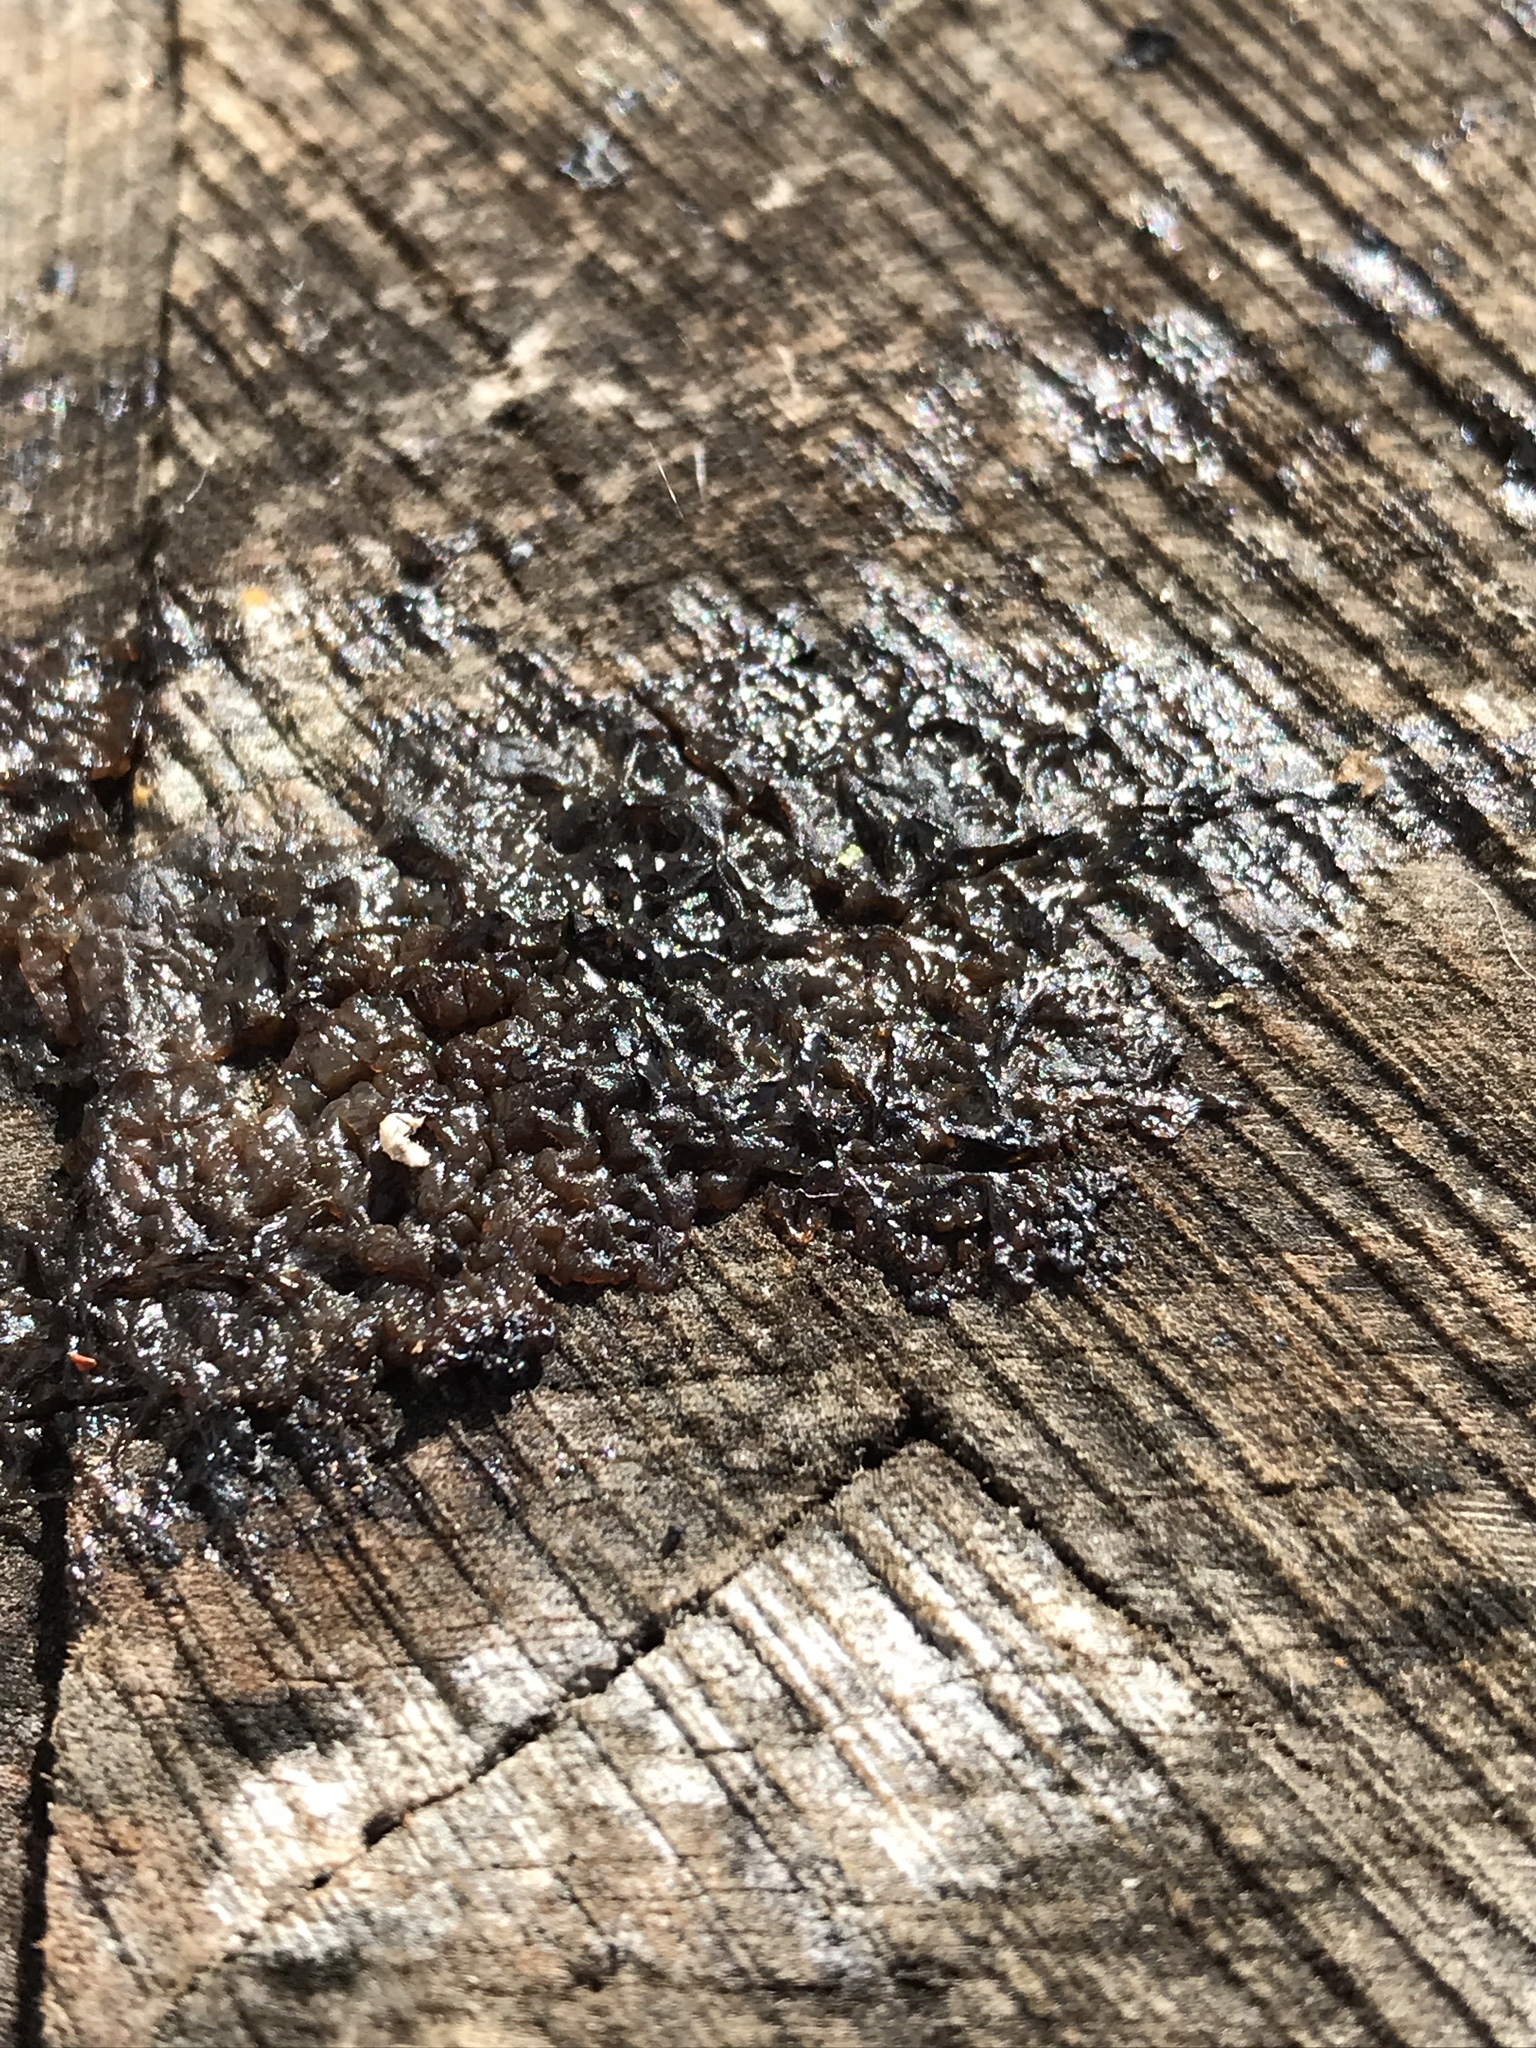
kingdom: Fungi
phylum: Basidiomycota
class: Agaricomycetes
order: Auriculariales
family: Auriculariaceae
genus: Exidia
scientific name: Exidia glandulosa
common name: Witches' butter
